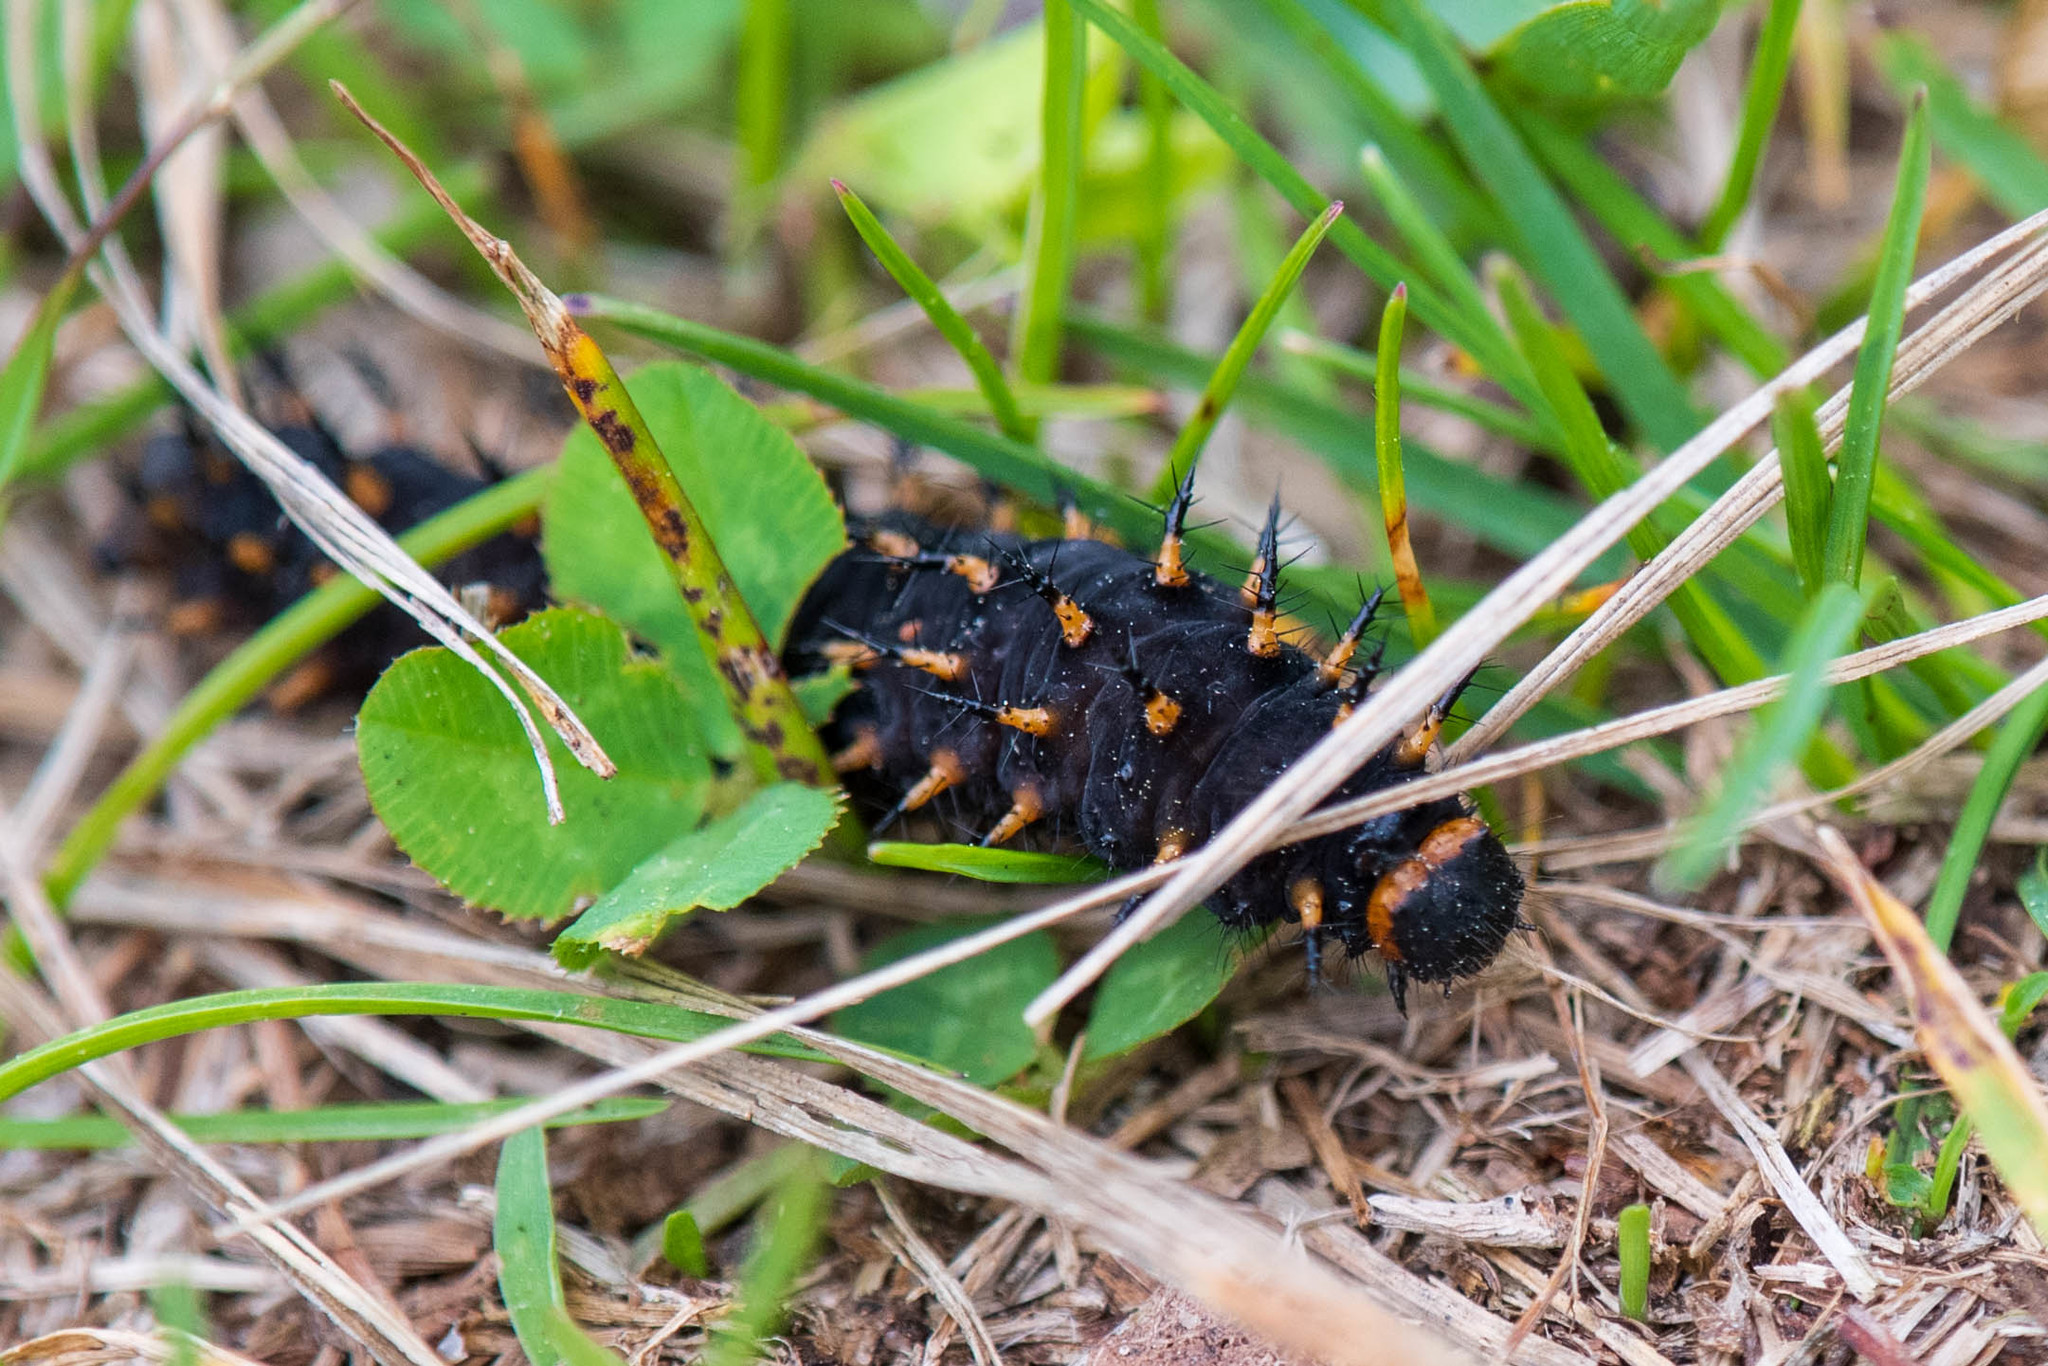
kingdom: Animalia
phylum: Arthropoda
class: Insecta
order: Lepidoptera
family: Nymphalidae
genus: Speyeria
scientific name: Speyeria cybele
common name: Great spangled fritillary
